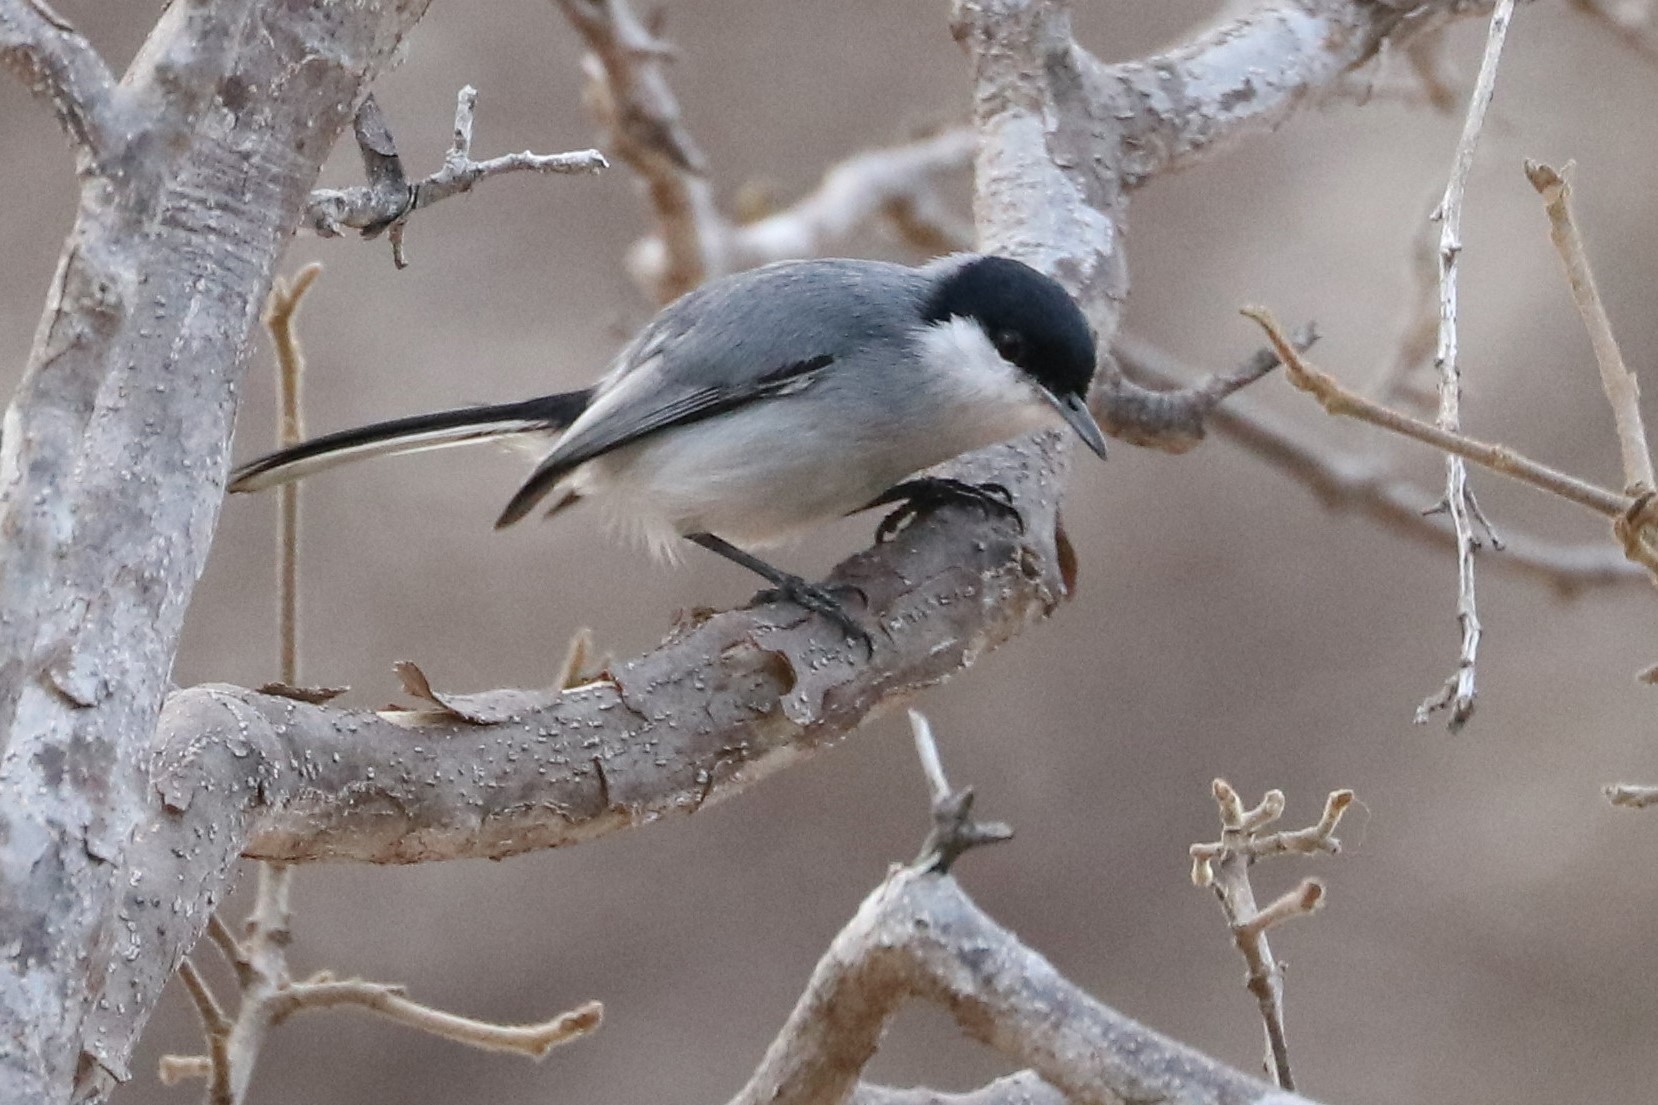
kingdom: Animalia
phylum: Chordata
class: Aves
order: Passeriformes
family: Polioptilidae
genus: Polioptila
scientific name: Polioptila plumbea
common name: Tropical gnatcatcher
